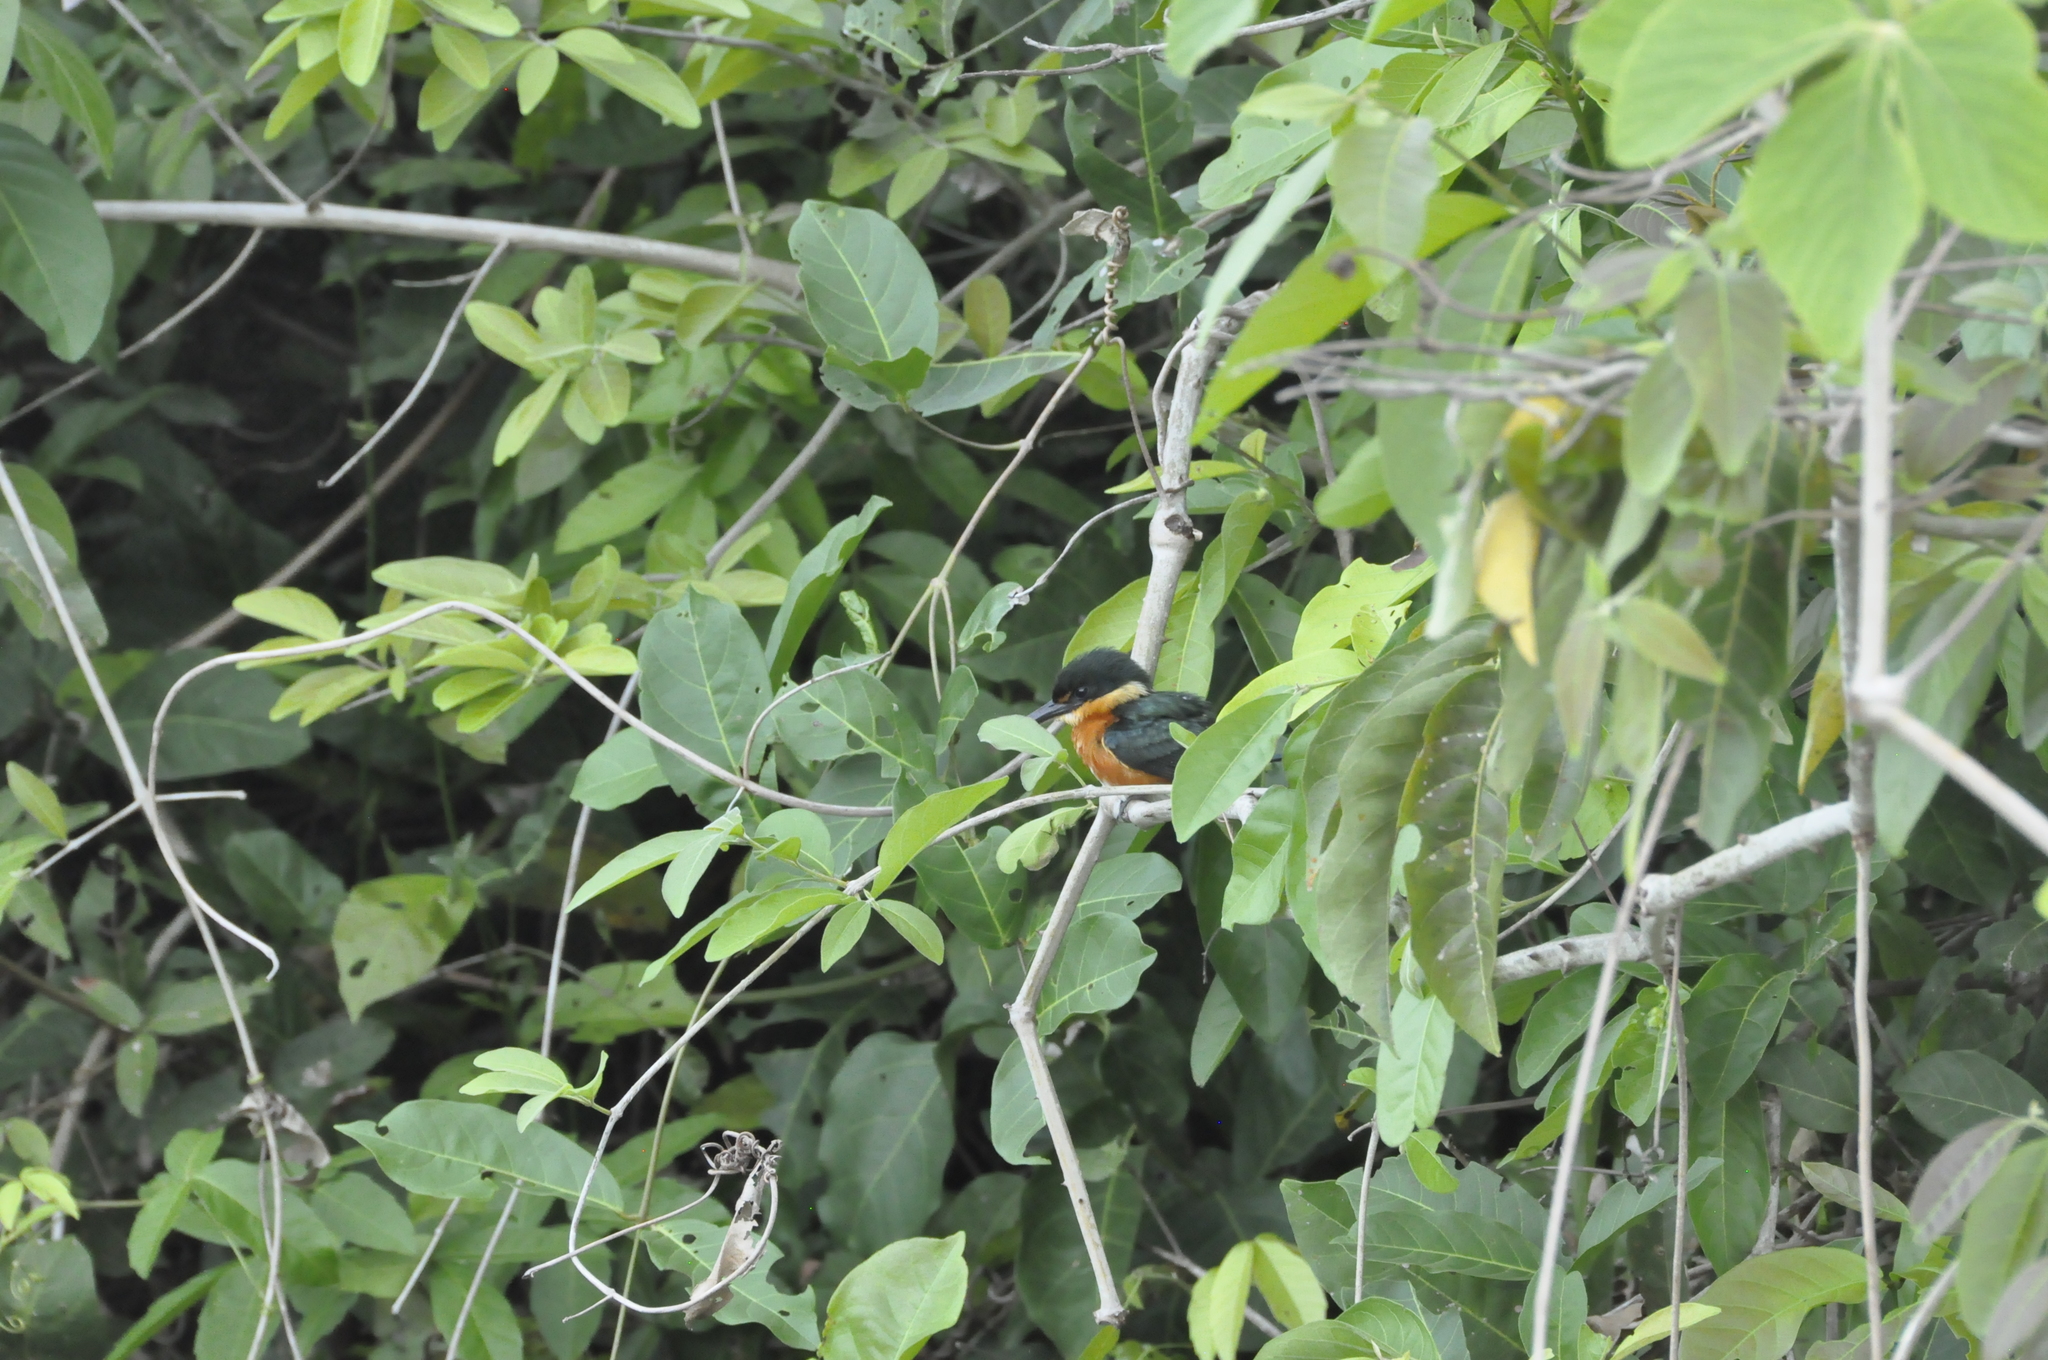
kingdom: Animalia
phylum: Chordata
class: Aves
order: Coraciiformes
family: Alcedinidae
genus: Chloroceryle
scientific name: Chloroceryle aenea
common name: American pygmy kingfisher
